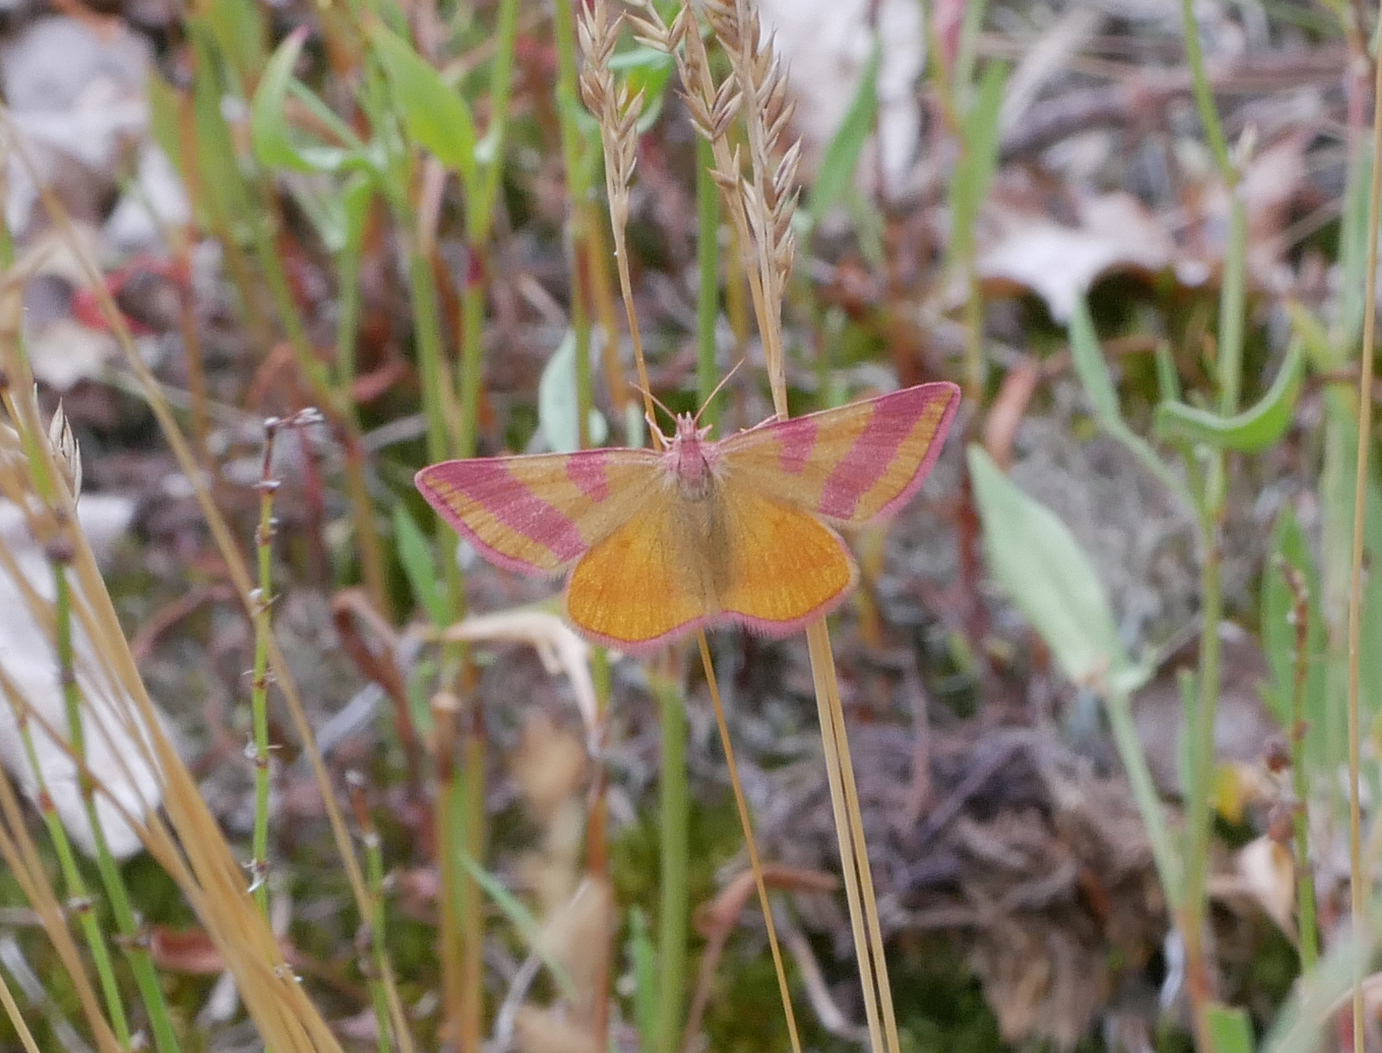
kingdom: Animalia
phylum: Arthropoda
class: Insecta
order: Lepidoptera
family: Geometridae
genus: Lythria
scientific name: Lythria cruentaria
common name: Purple-barred yellow
